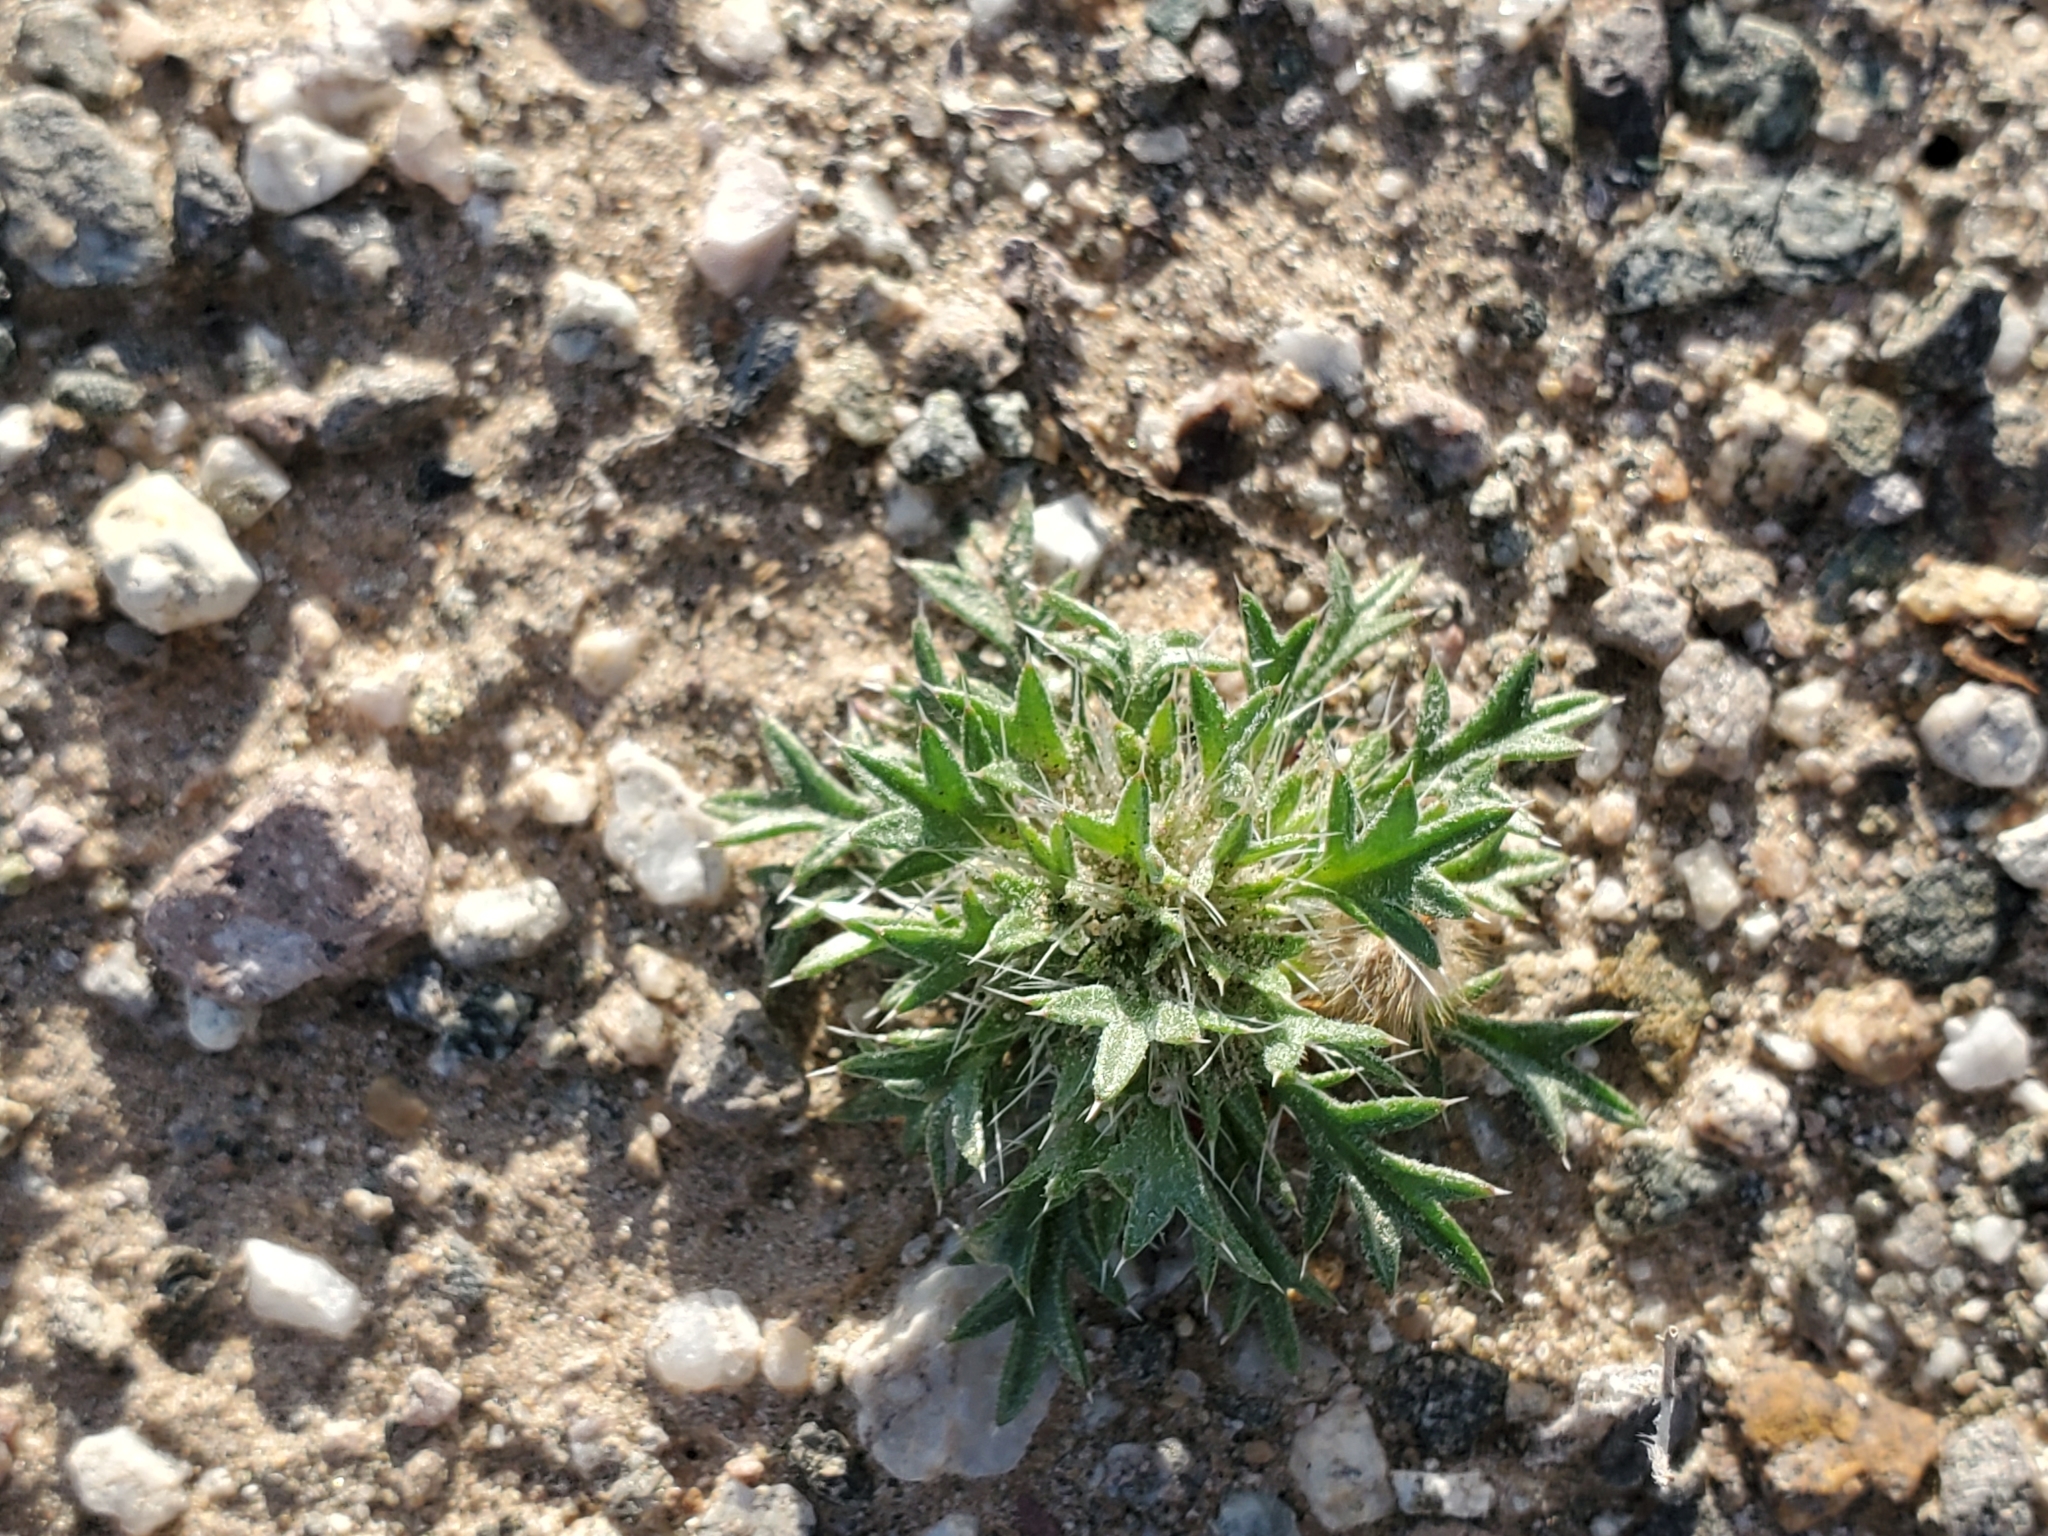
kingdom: Plantae
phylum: Tracheophyta
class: Magnoliopsida
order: Caryophyllales
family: Polygonaceae
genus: Chorizanthe
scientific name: Chorizanthe rigida
